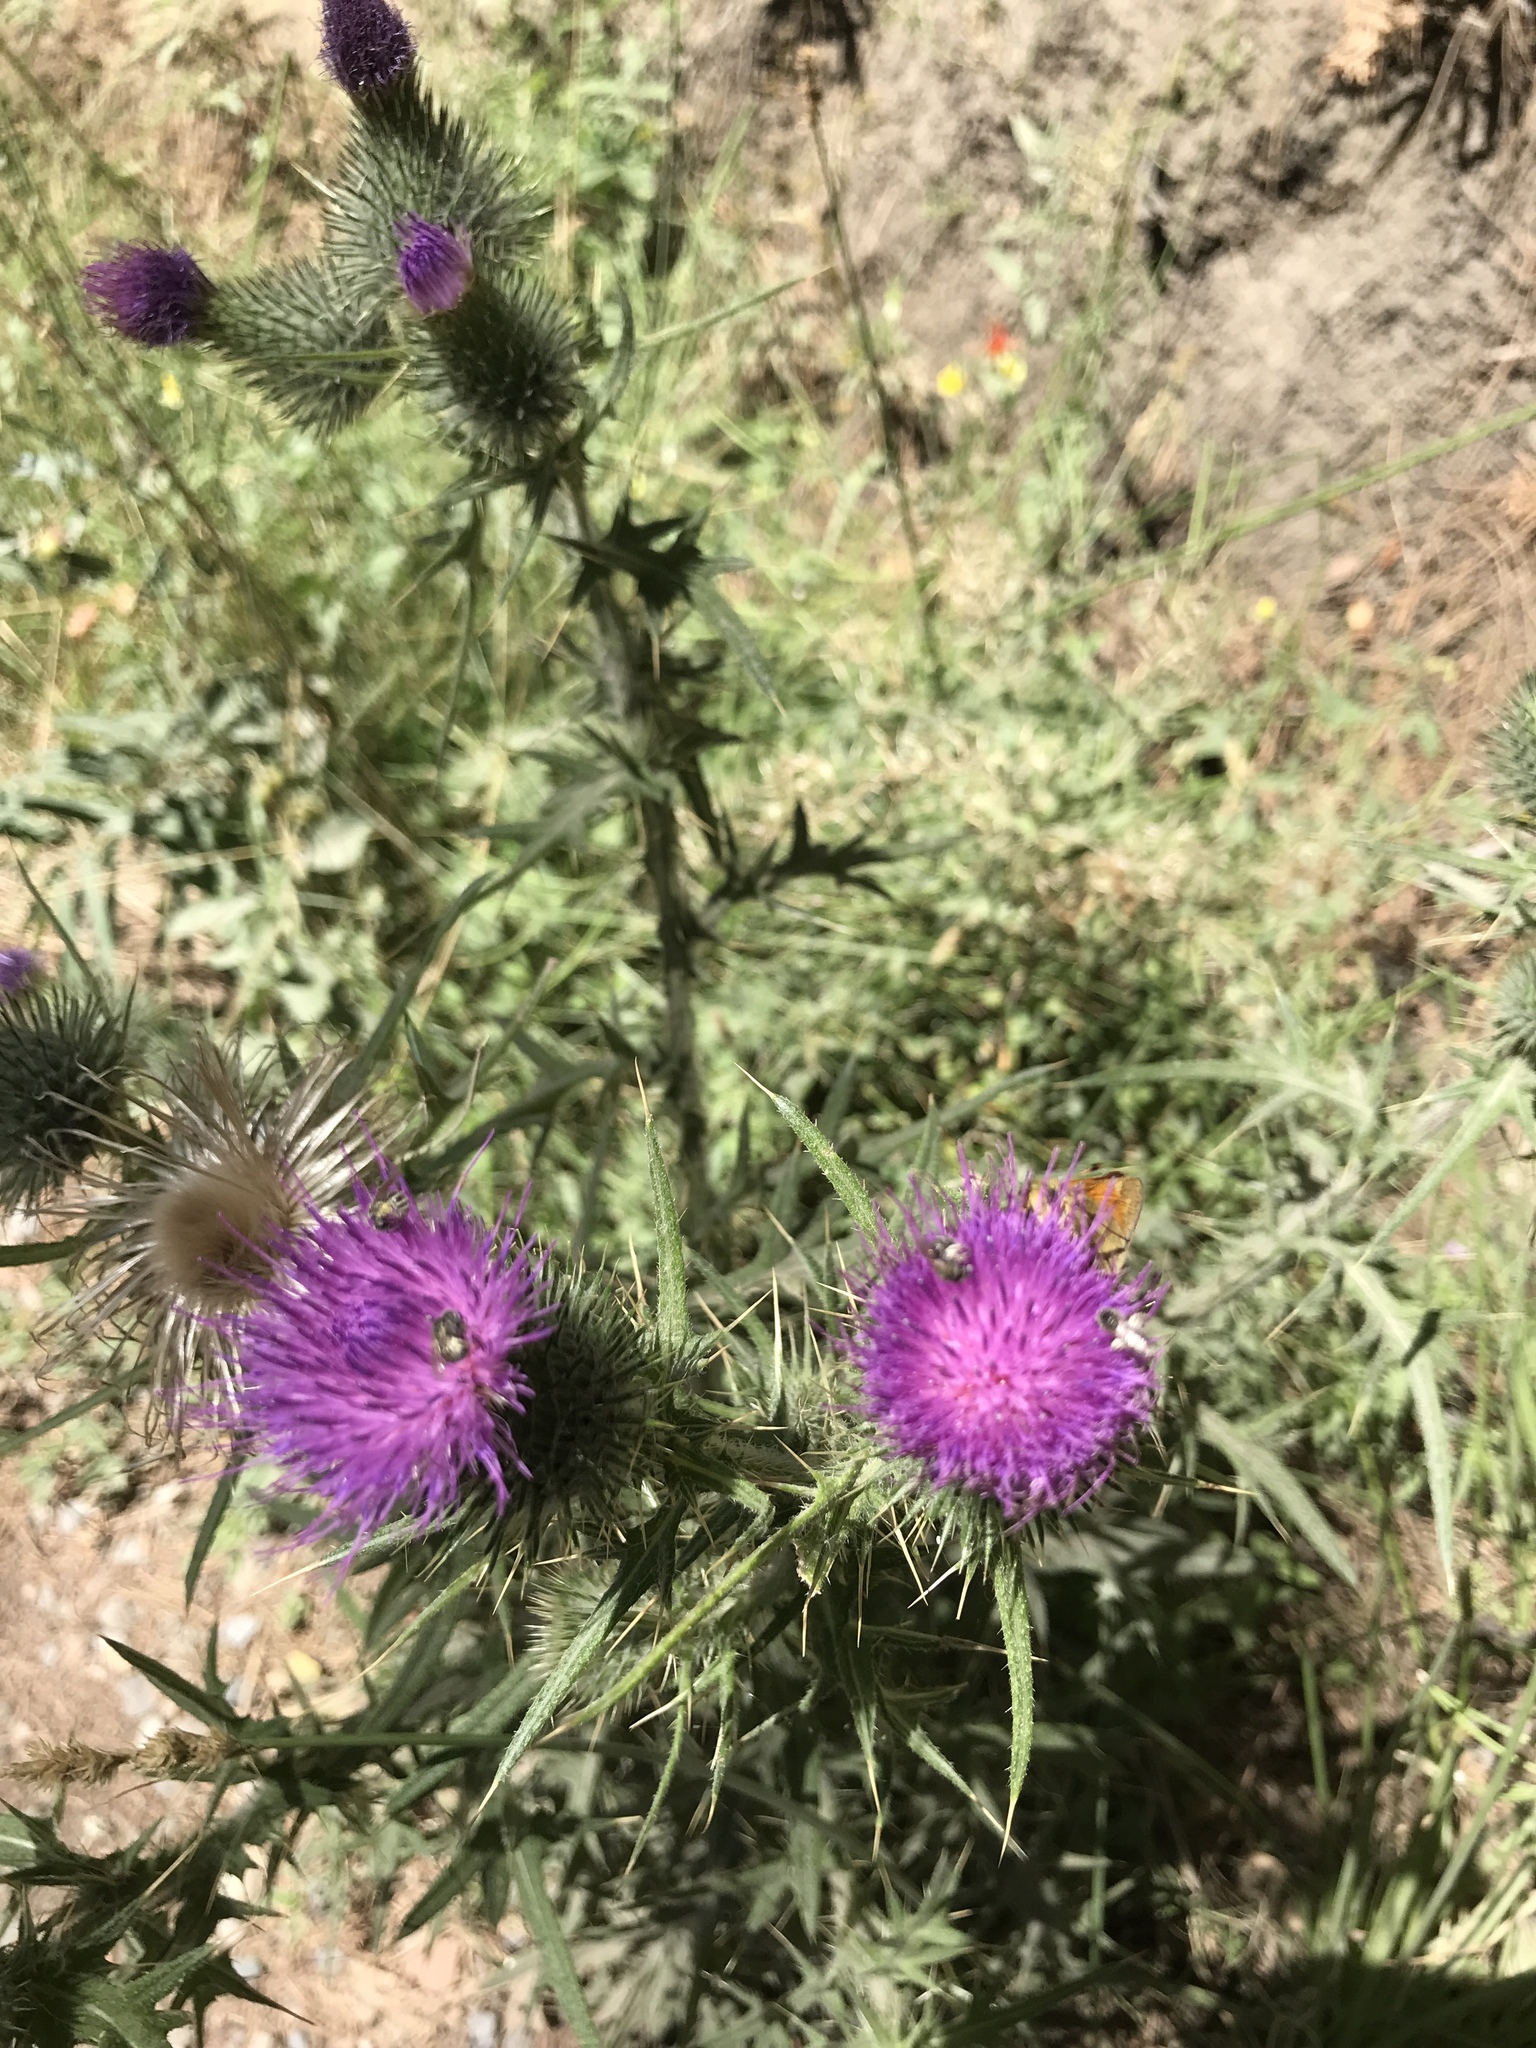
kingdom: Plantae
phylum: Tracheophyta
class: Magnoliopsida
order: Asterales
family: Asteraceae
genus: Cirsium
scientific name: Cirsium vulgare
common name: Bull thistle
